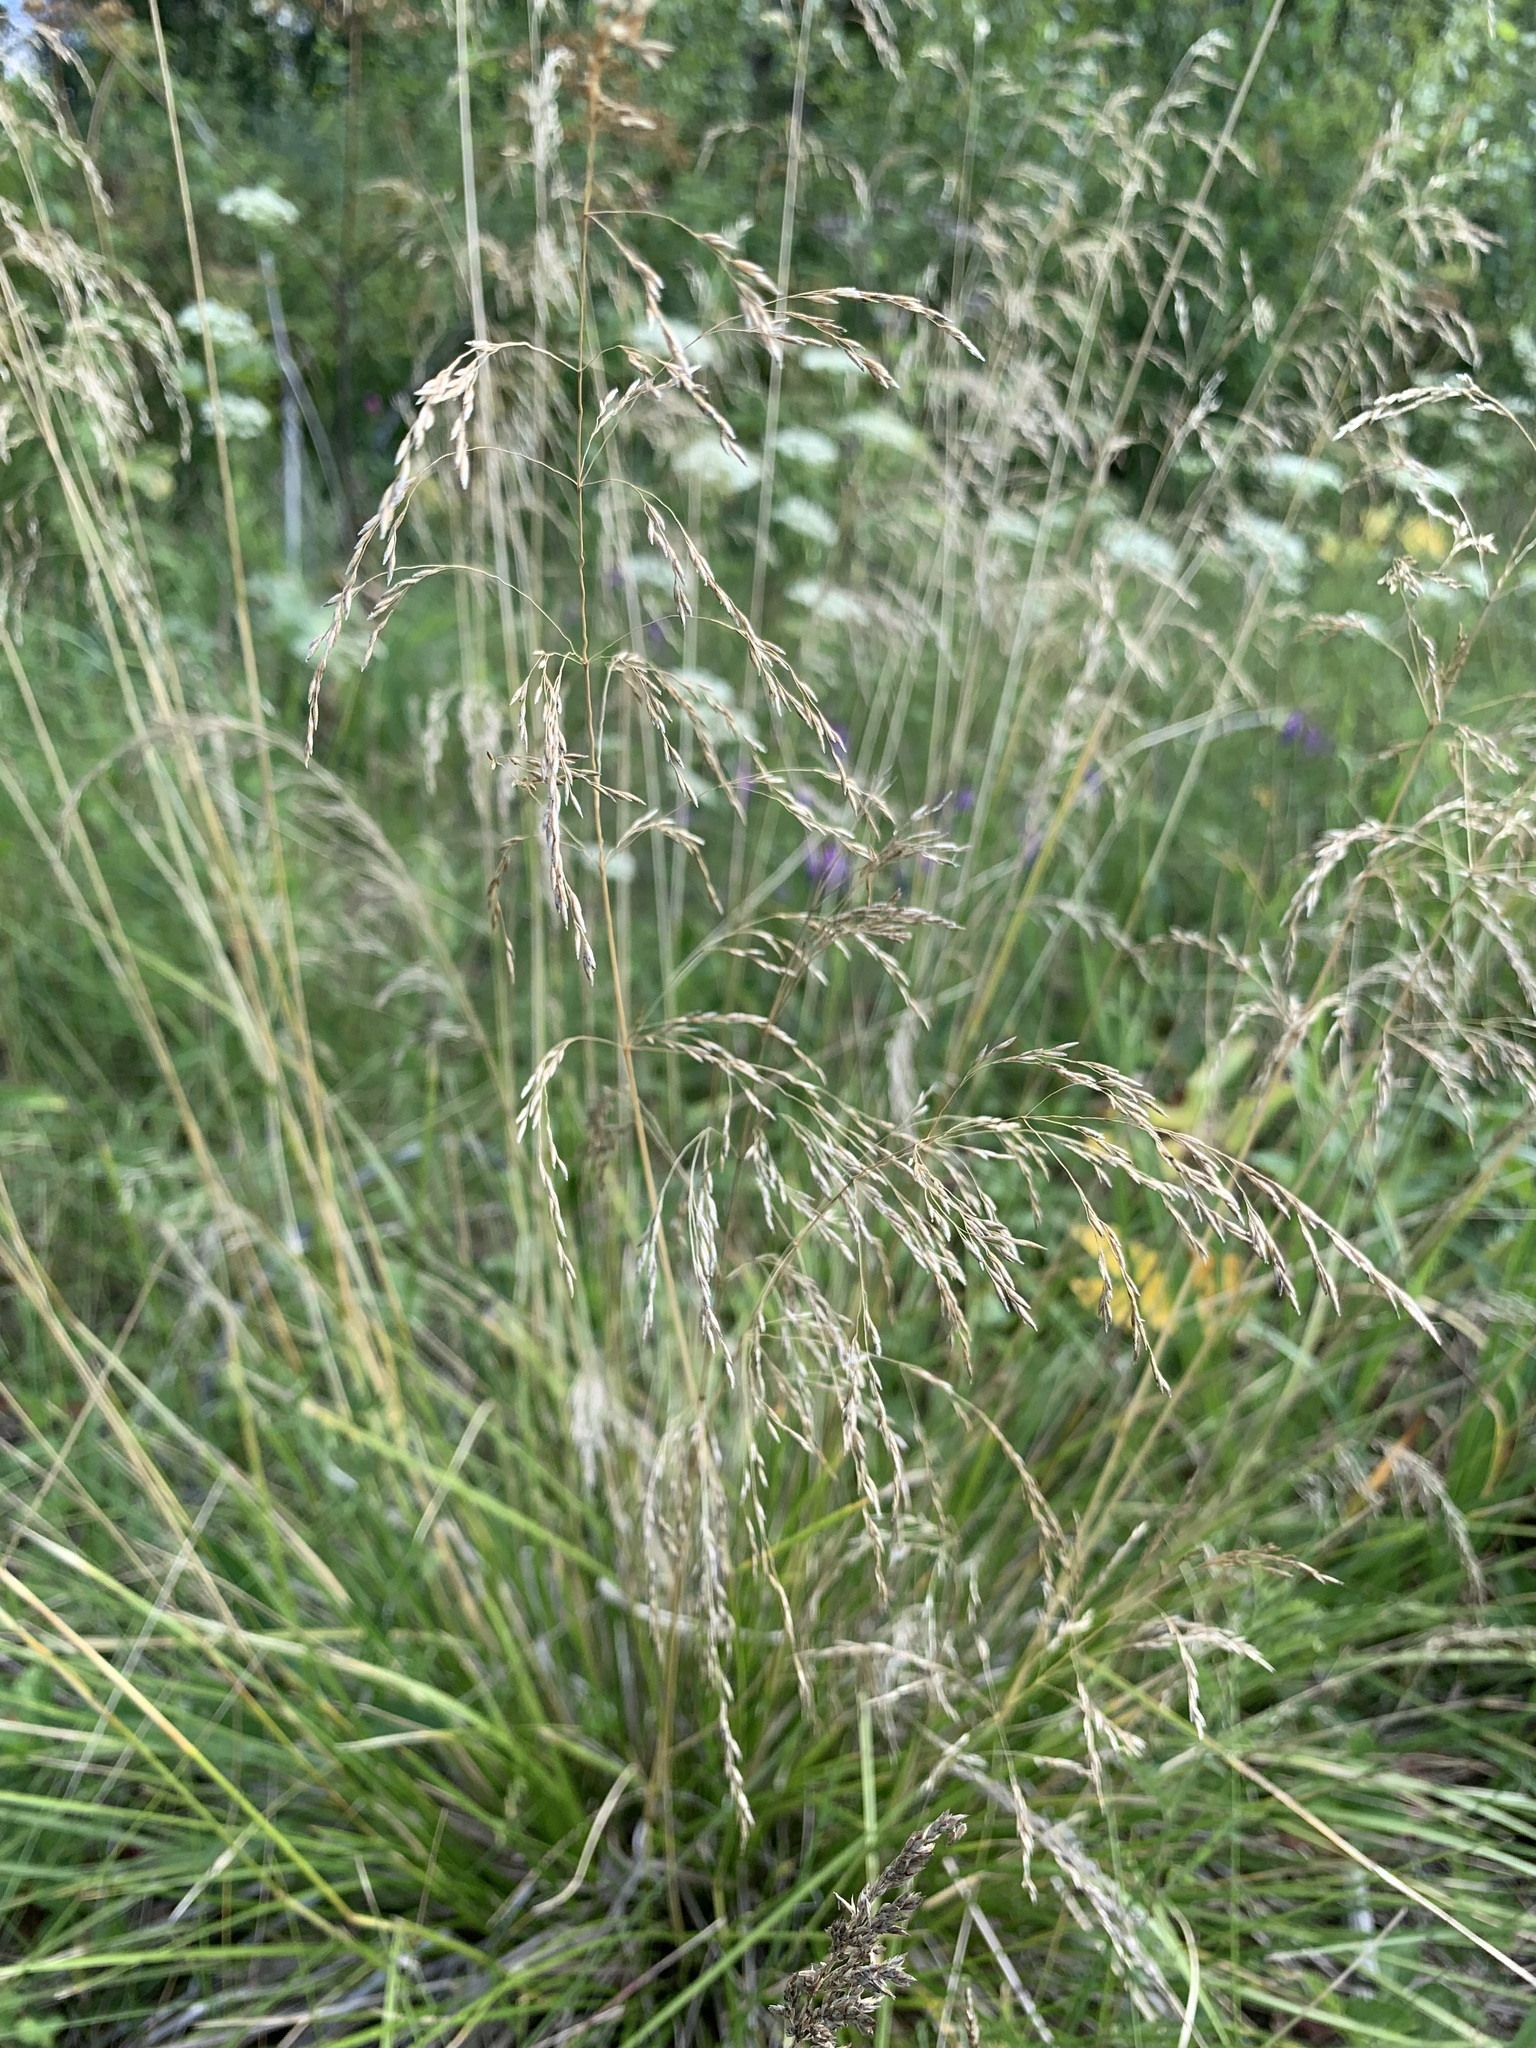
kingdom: Plantae
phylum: Tracheophyta
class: Liliopsida
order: Poales
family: Poaceae
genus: Deschampsia
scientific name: Deschampsia cespitosa
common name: Tufted hair-grass
